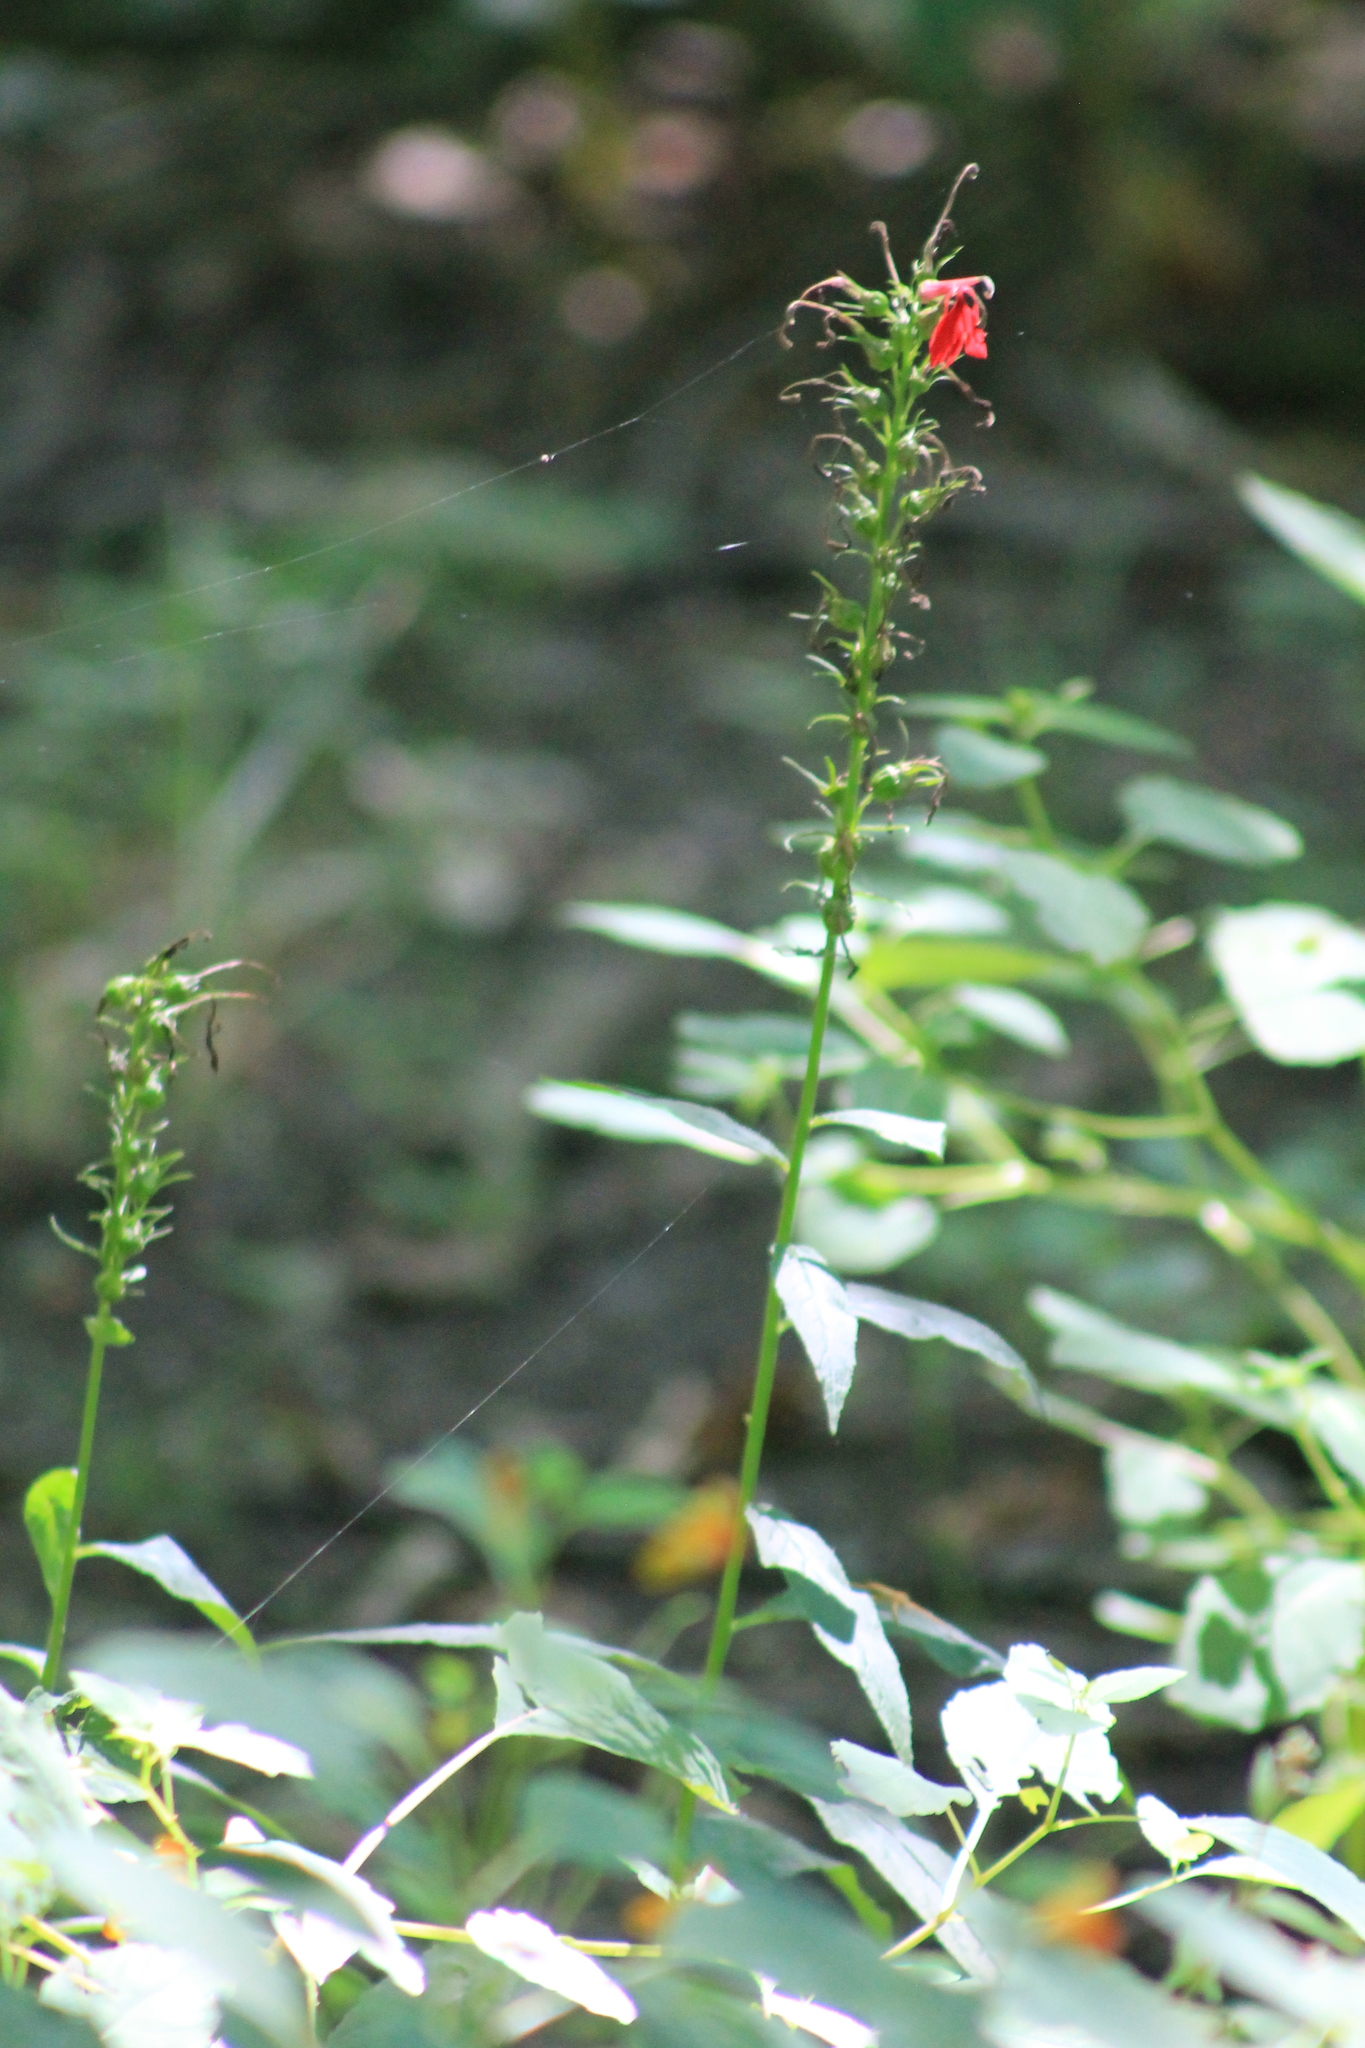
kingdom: Plantae
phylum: Tracheophyta
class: Magnoliopsida
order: Asterales
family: Campanulaceae
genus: Lobelia
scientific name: Lobelia cardinalis
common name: Cardinal flower
